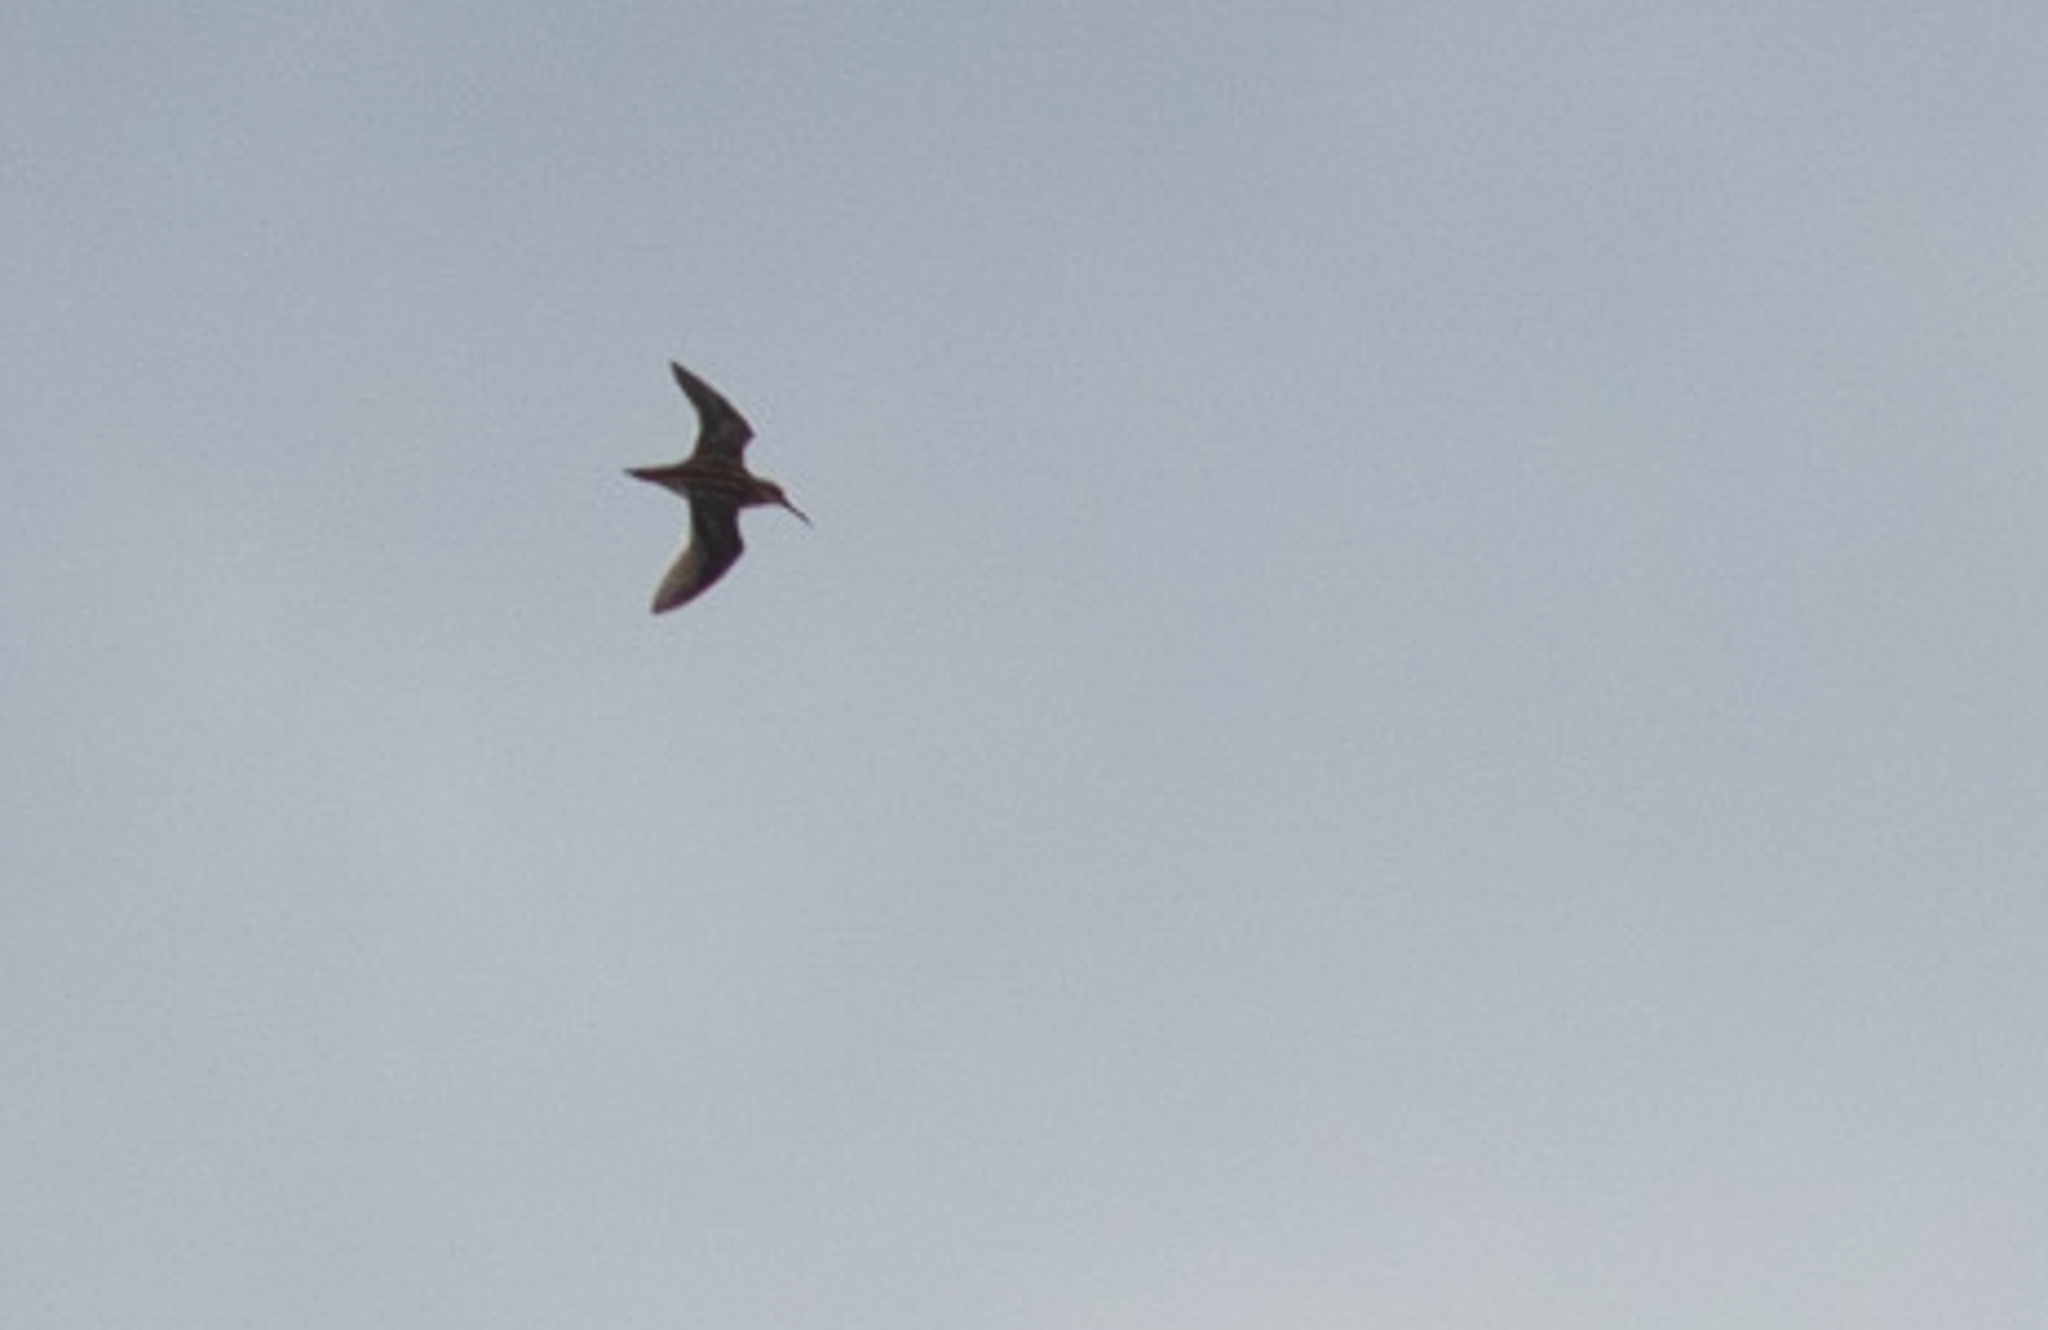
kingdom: Animalia
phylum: Chordata
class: Aves
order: Charadriiformes
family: Scolopacidae
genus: Lymnocryptes
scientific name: Lymnocryptes minimus
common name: Jack snipe
